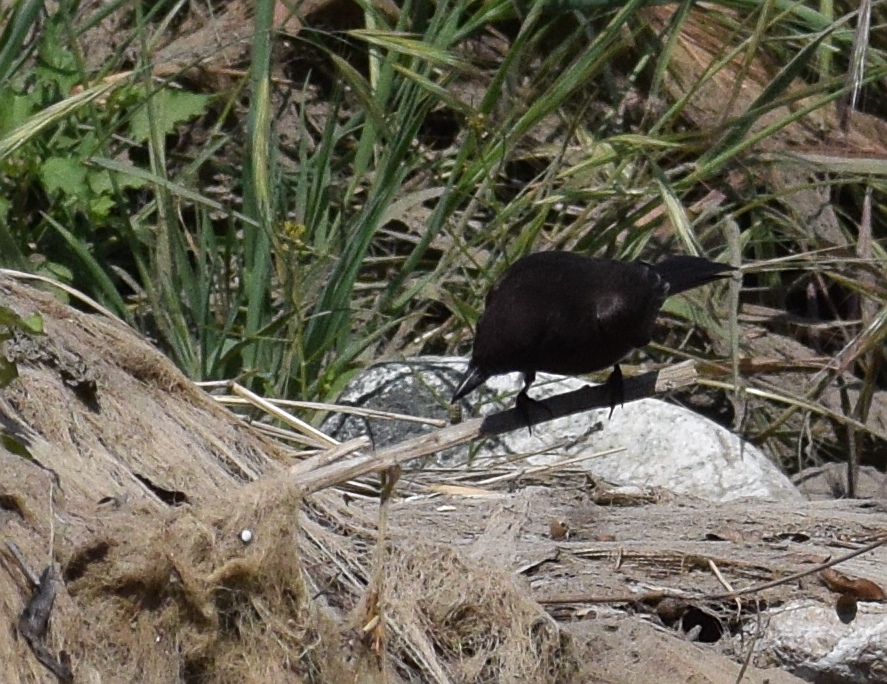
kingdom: Animalia
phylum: Chordata
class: Aves
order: Passeriformes
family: Tyrannidae
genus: Sayornis
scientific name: Sayornis nigricans
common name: Black phoebe
